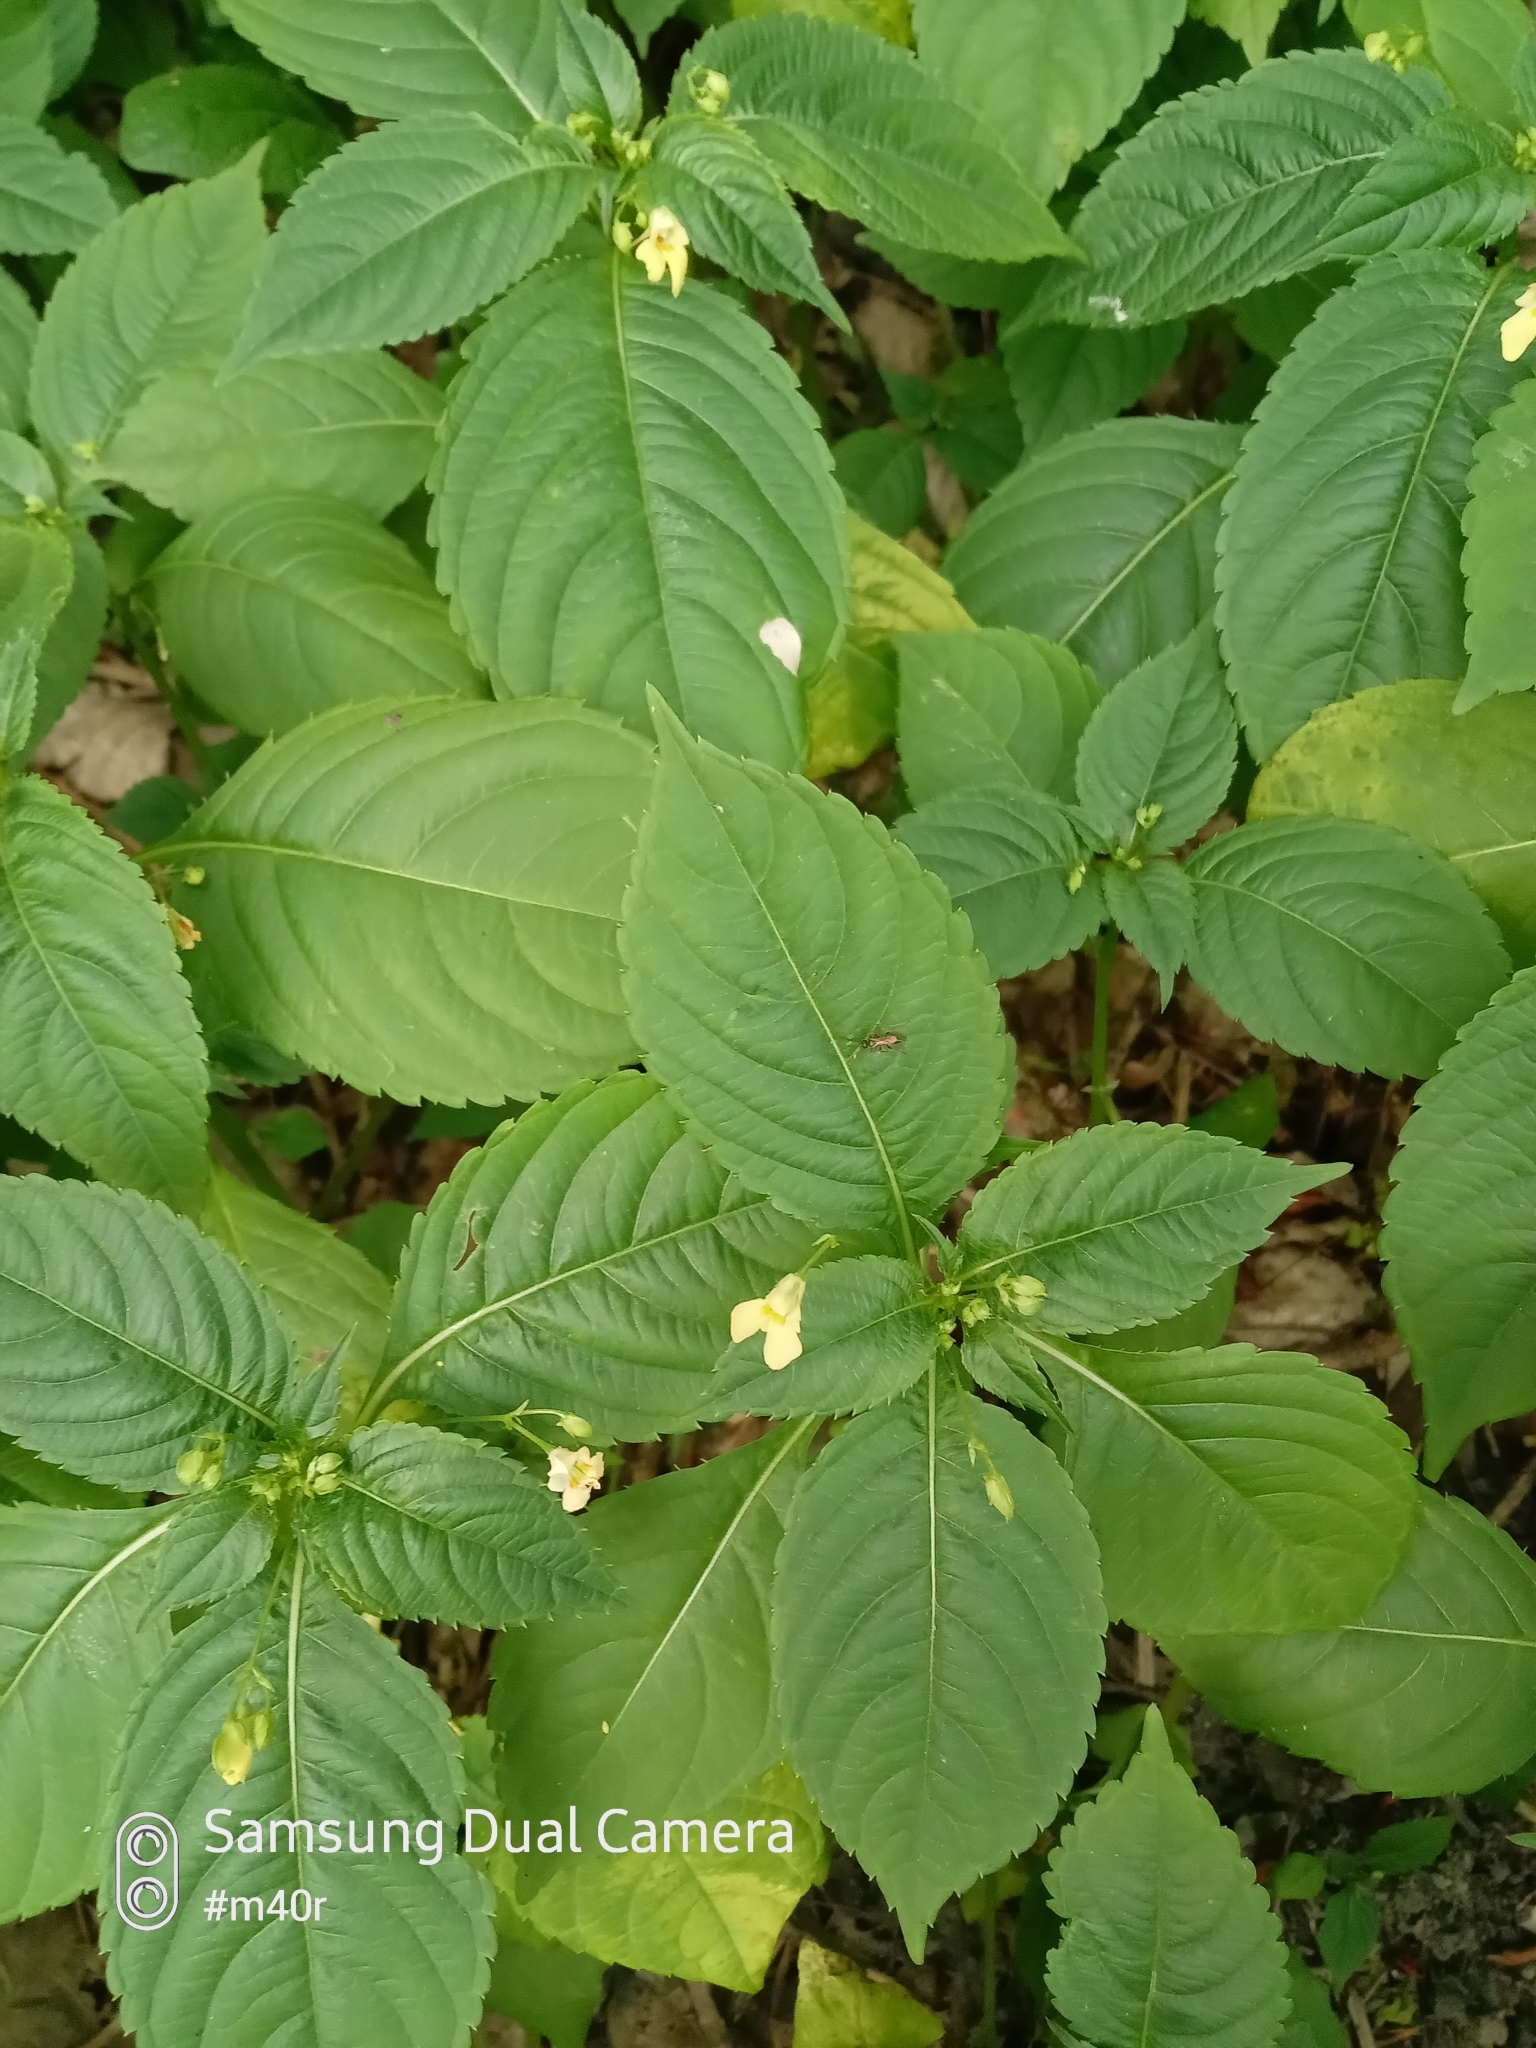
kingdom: Plantae
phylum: Tracheophyta
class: Magnoliopsida
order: Ericales
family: Balsaminaceae
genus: Impatiens
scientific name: Impatiens parviflora
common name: Small balsam
